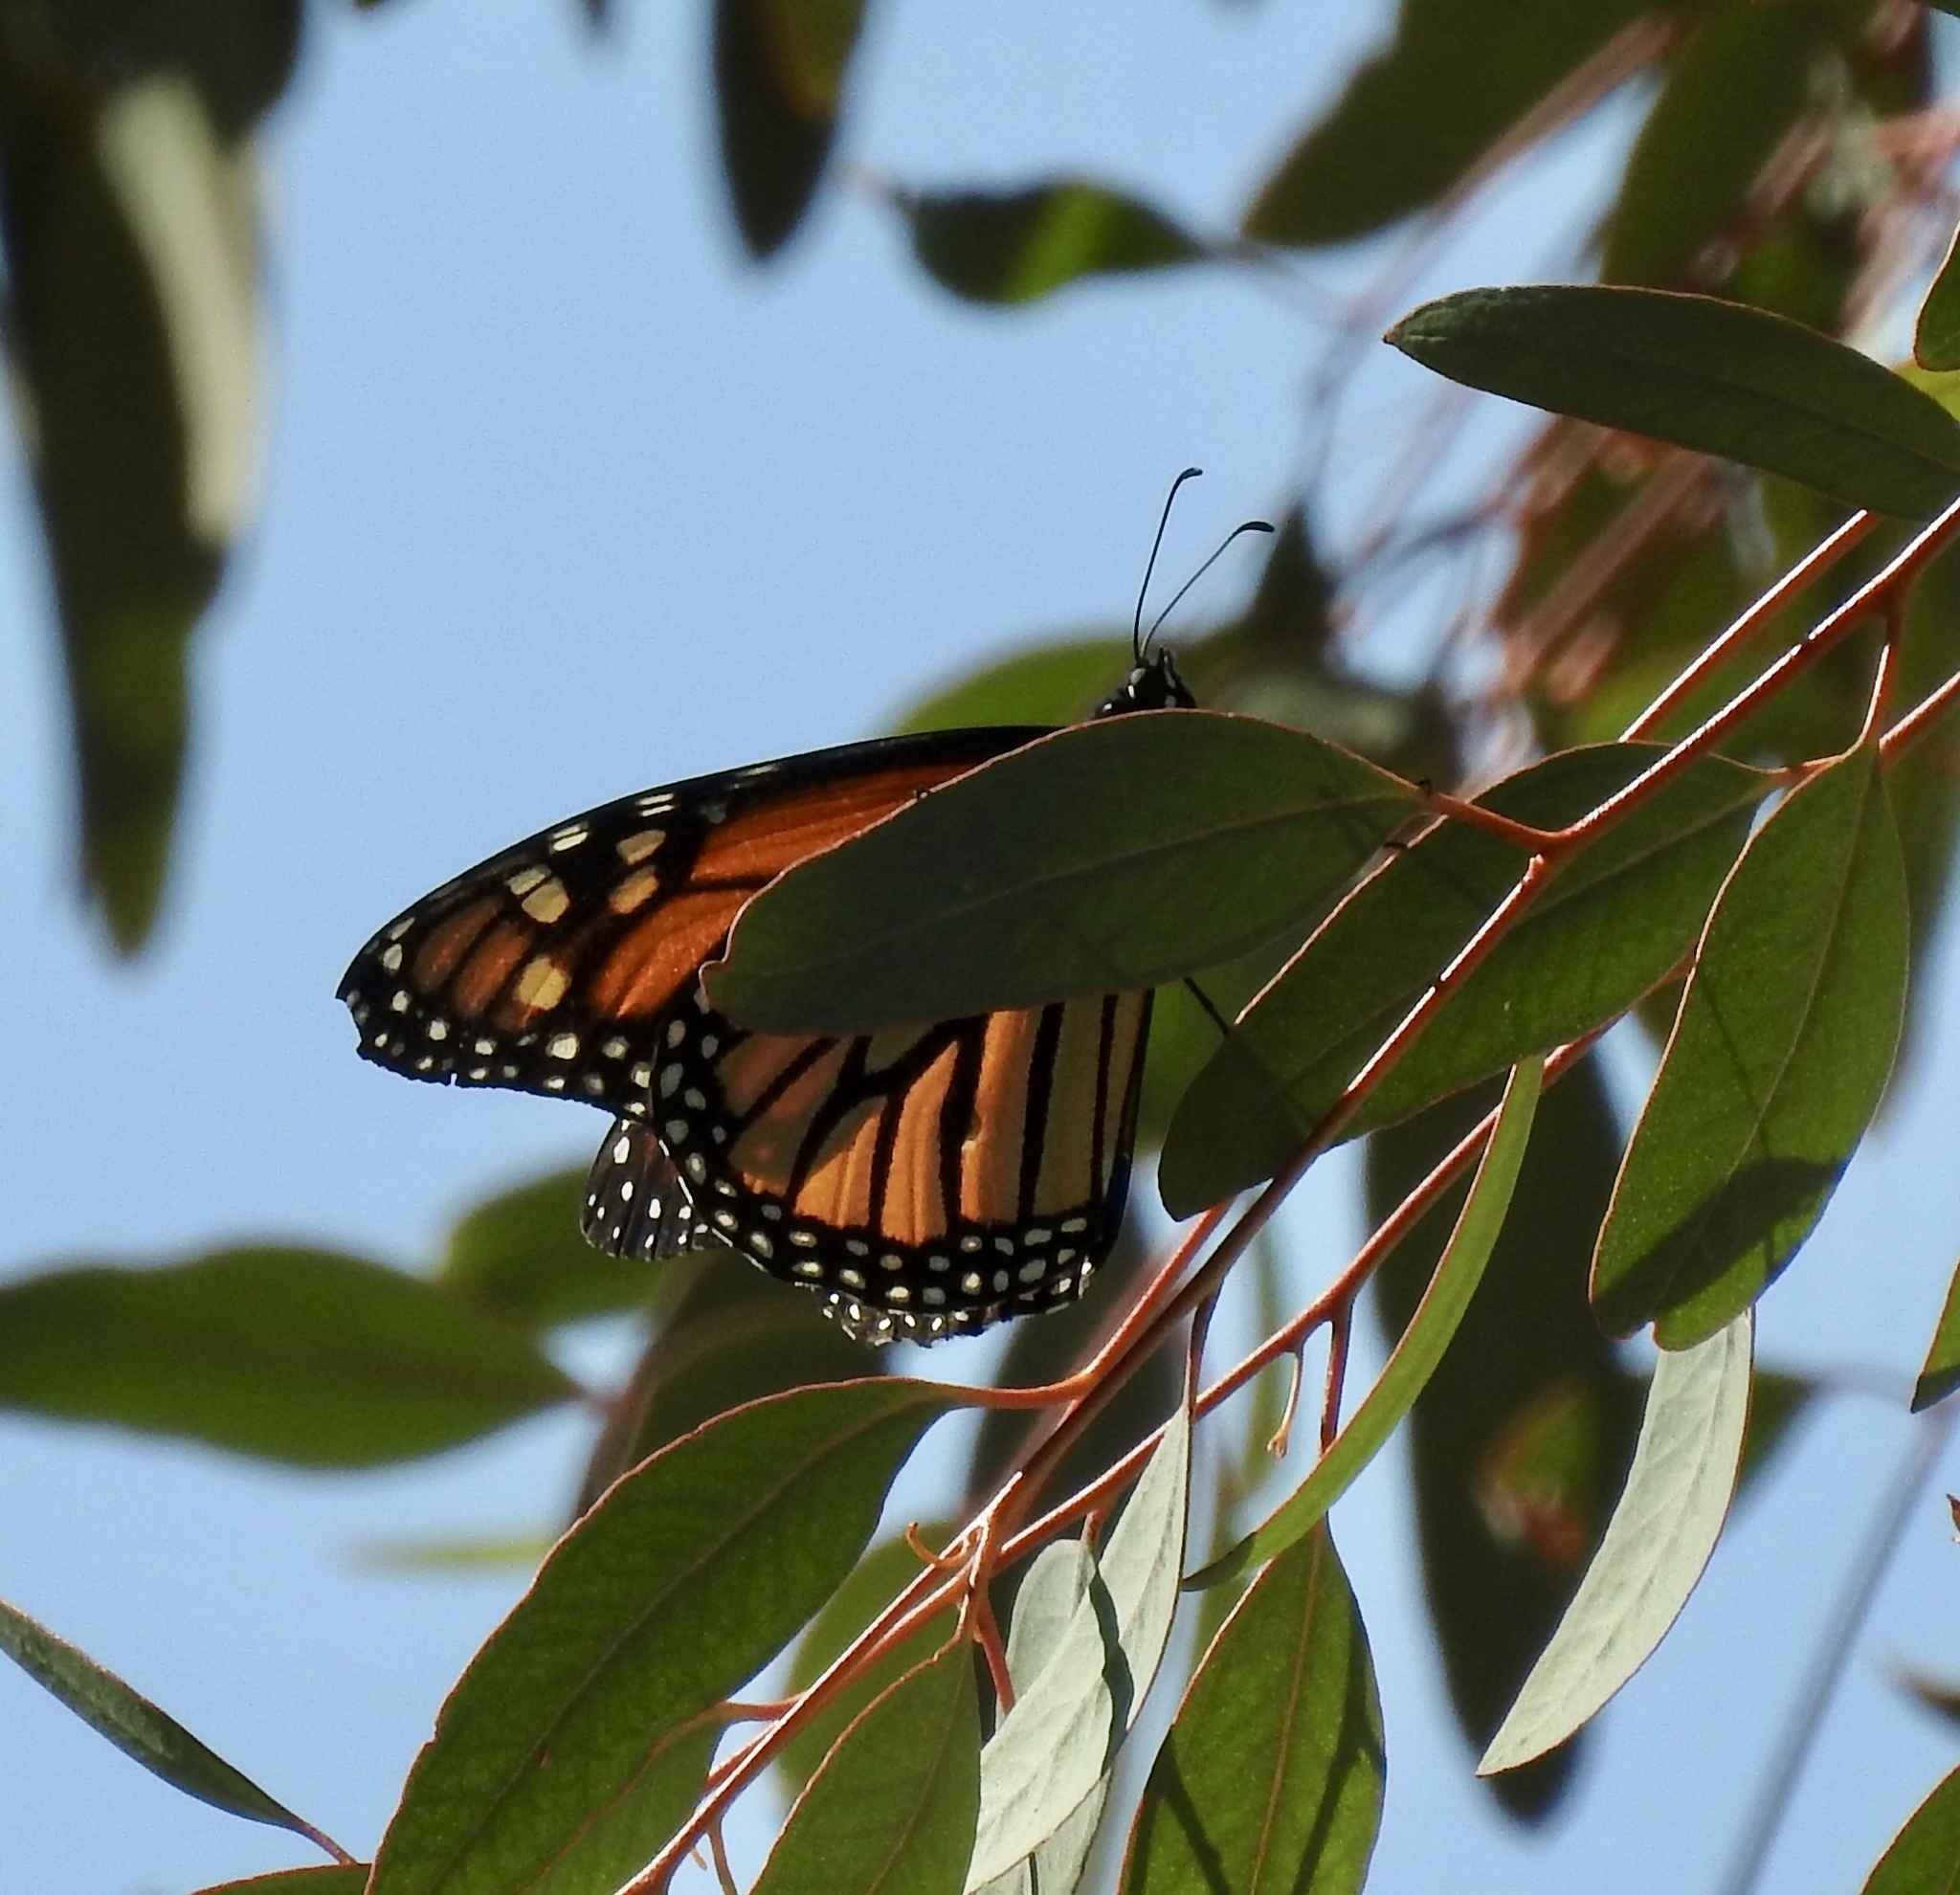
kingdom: Animalia
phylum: Arthropoda
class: Insecta
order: Lepidoptera
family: Nymphalidae
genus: Danaus
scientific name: Danaus plexippus
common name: Monarch
